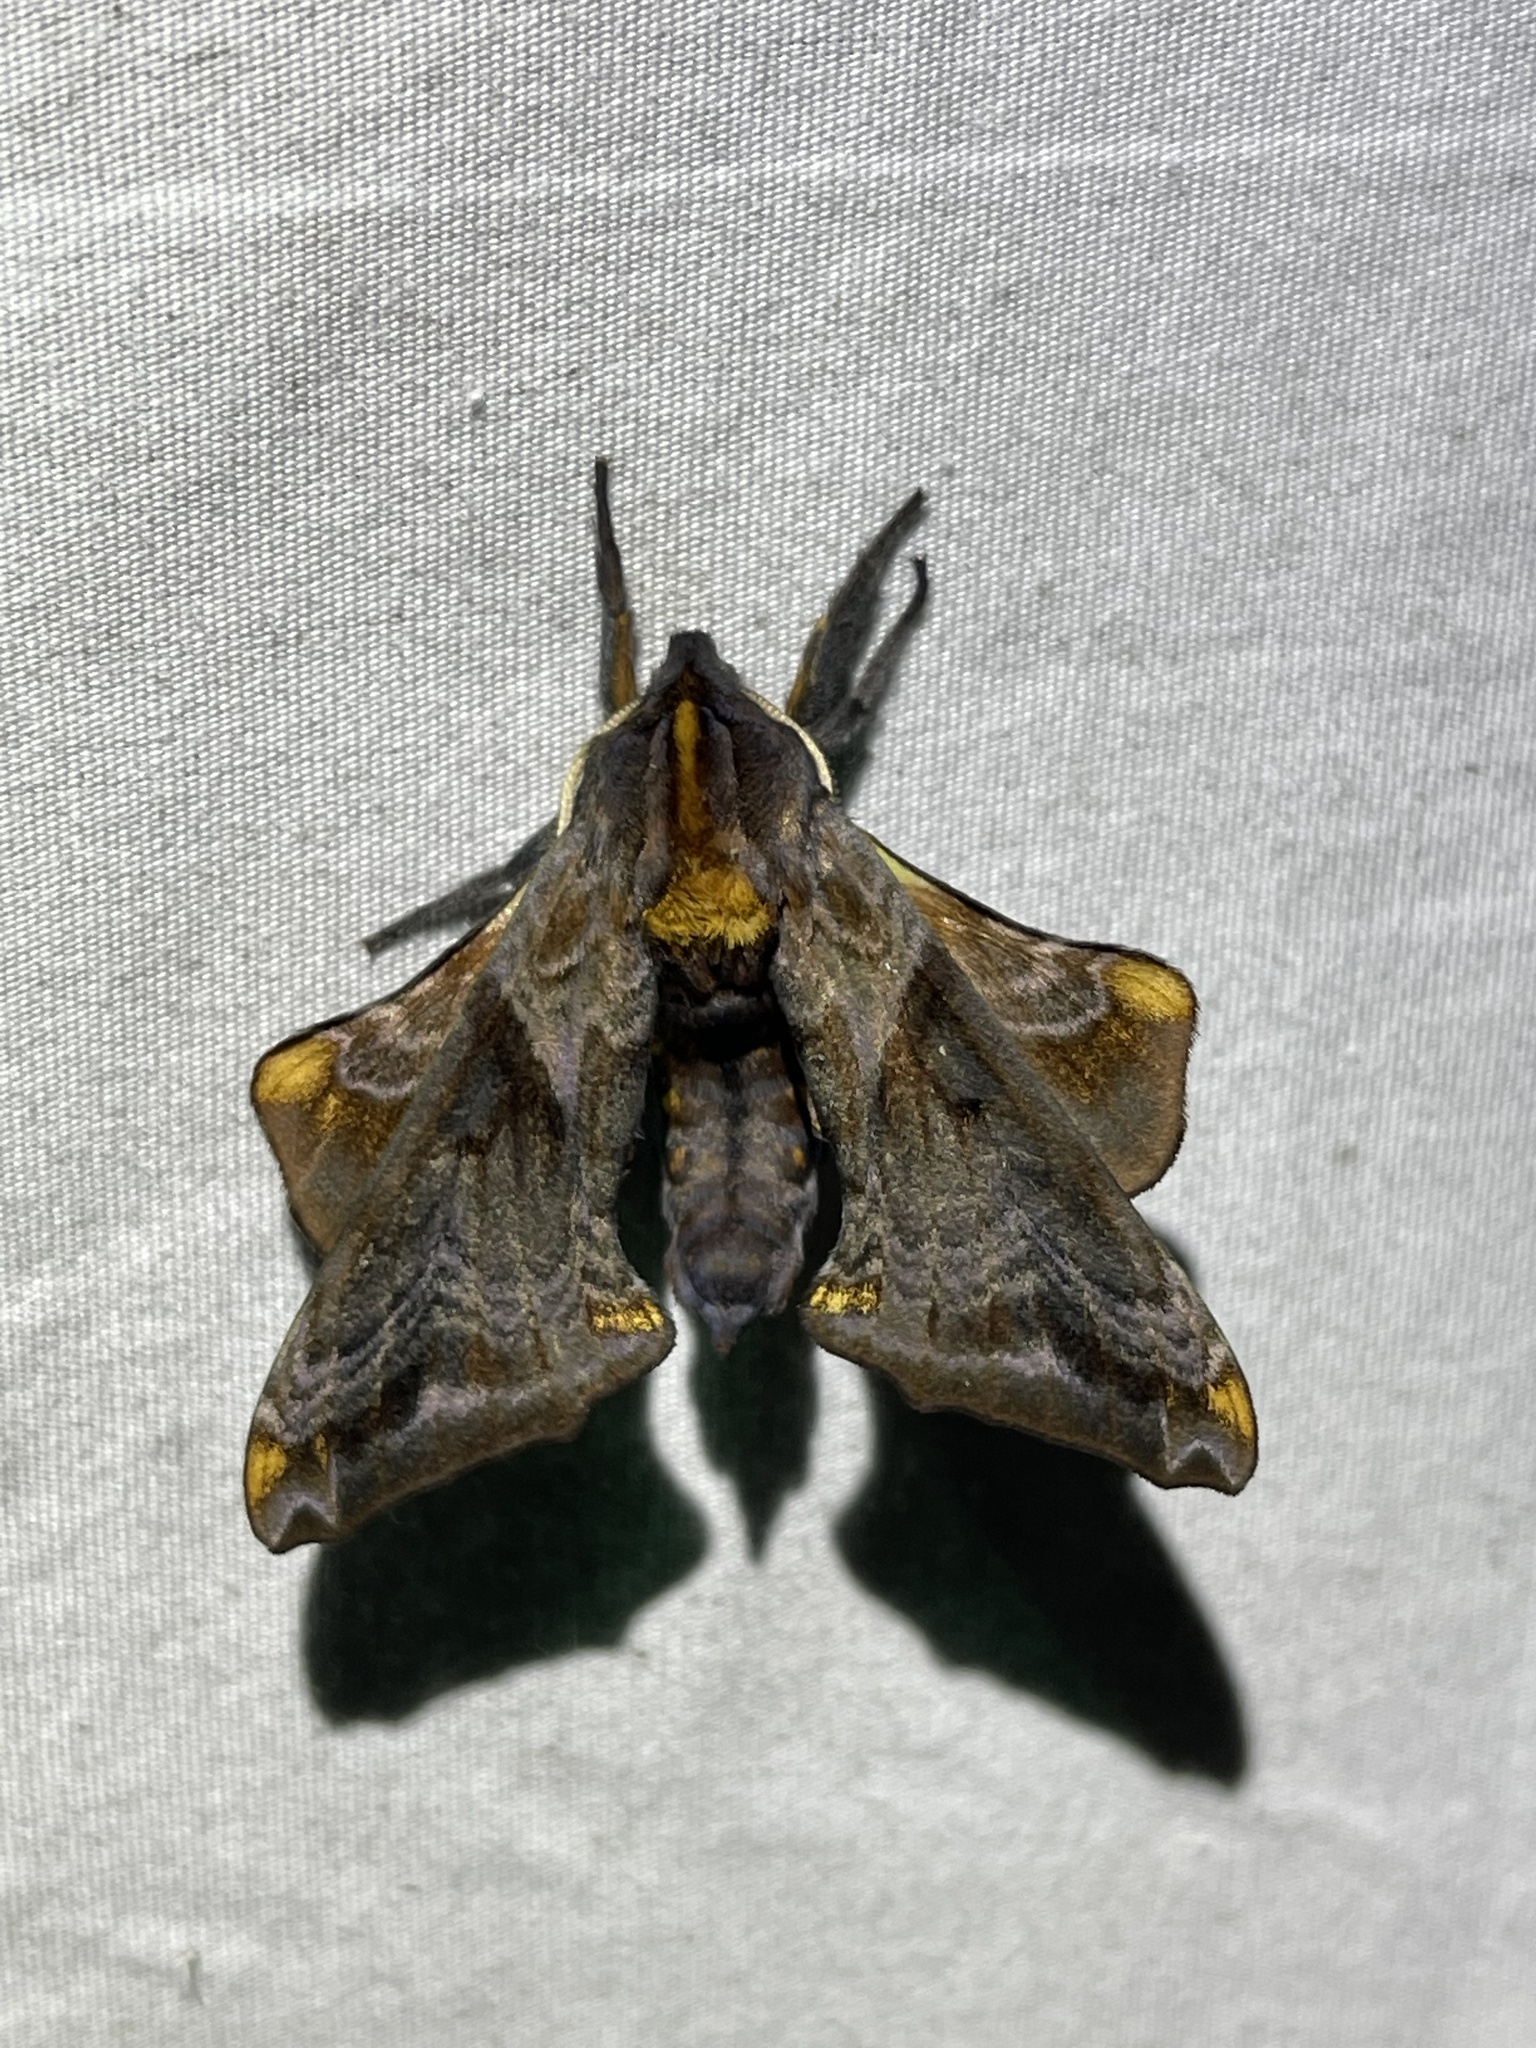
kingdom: Animalia
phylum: Arthropoda
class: Insecta
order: Lepidoptera
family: Sphingidae
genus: Paonias
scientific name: Paonias myops
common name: Small-eyed sphinx
